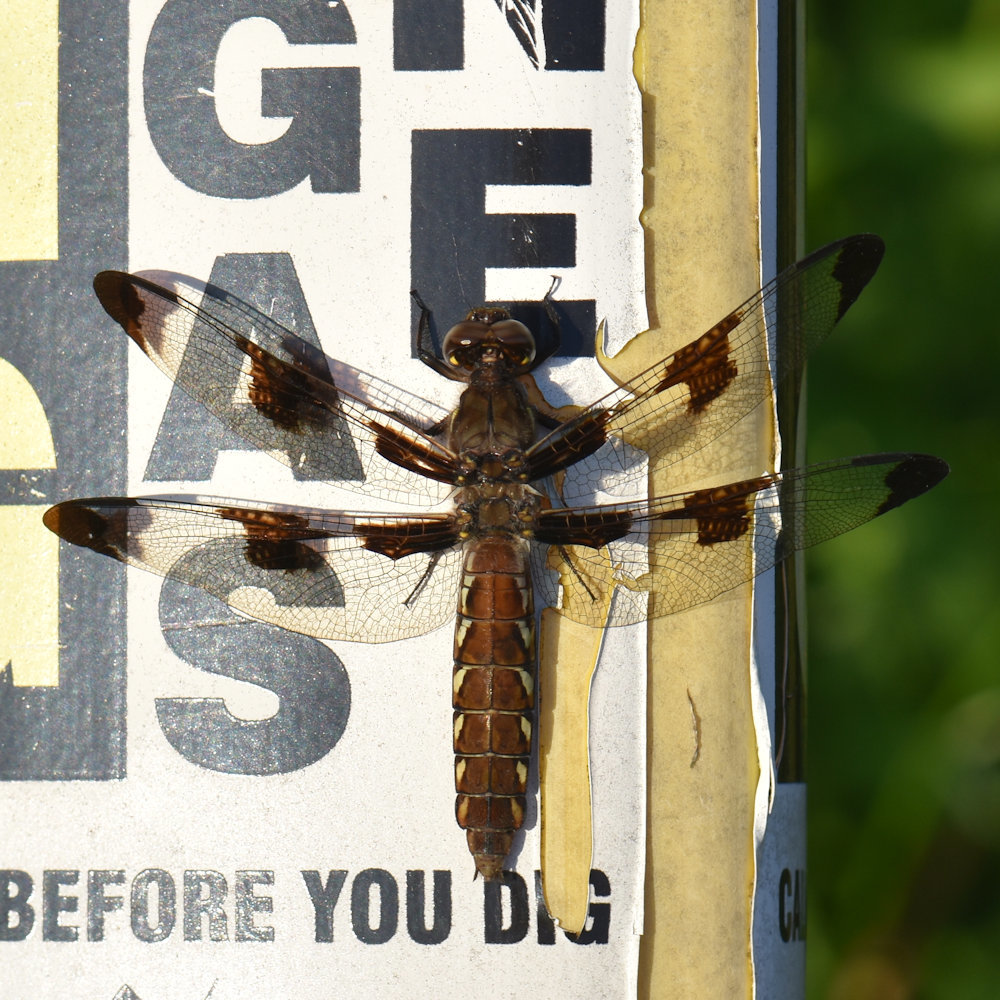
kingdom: Animalia
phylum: Arthropoda
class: Insecta
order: Odonata
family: Libellulidae
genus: Plathemis
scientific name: Plathemis lydia
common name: Common whitetail
